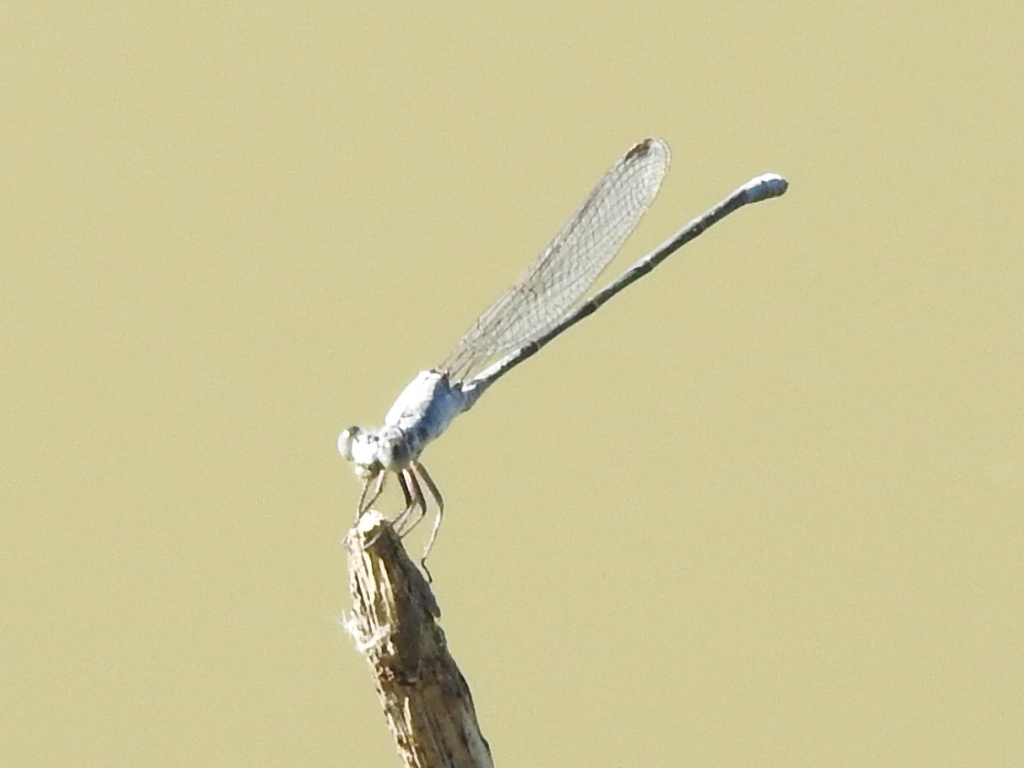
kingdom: Animalia
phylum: Arthropoda
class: Insecta
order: Odonata
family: Coenagrionidae
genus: Argia
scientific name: Argia moesta
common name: Powdered dancer
